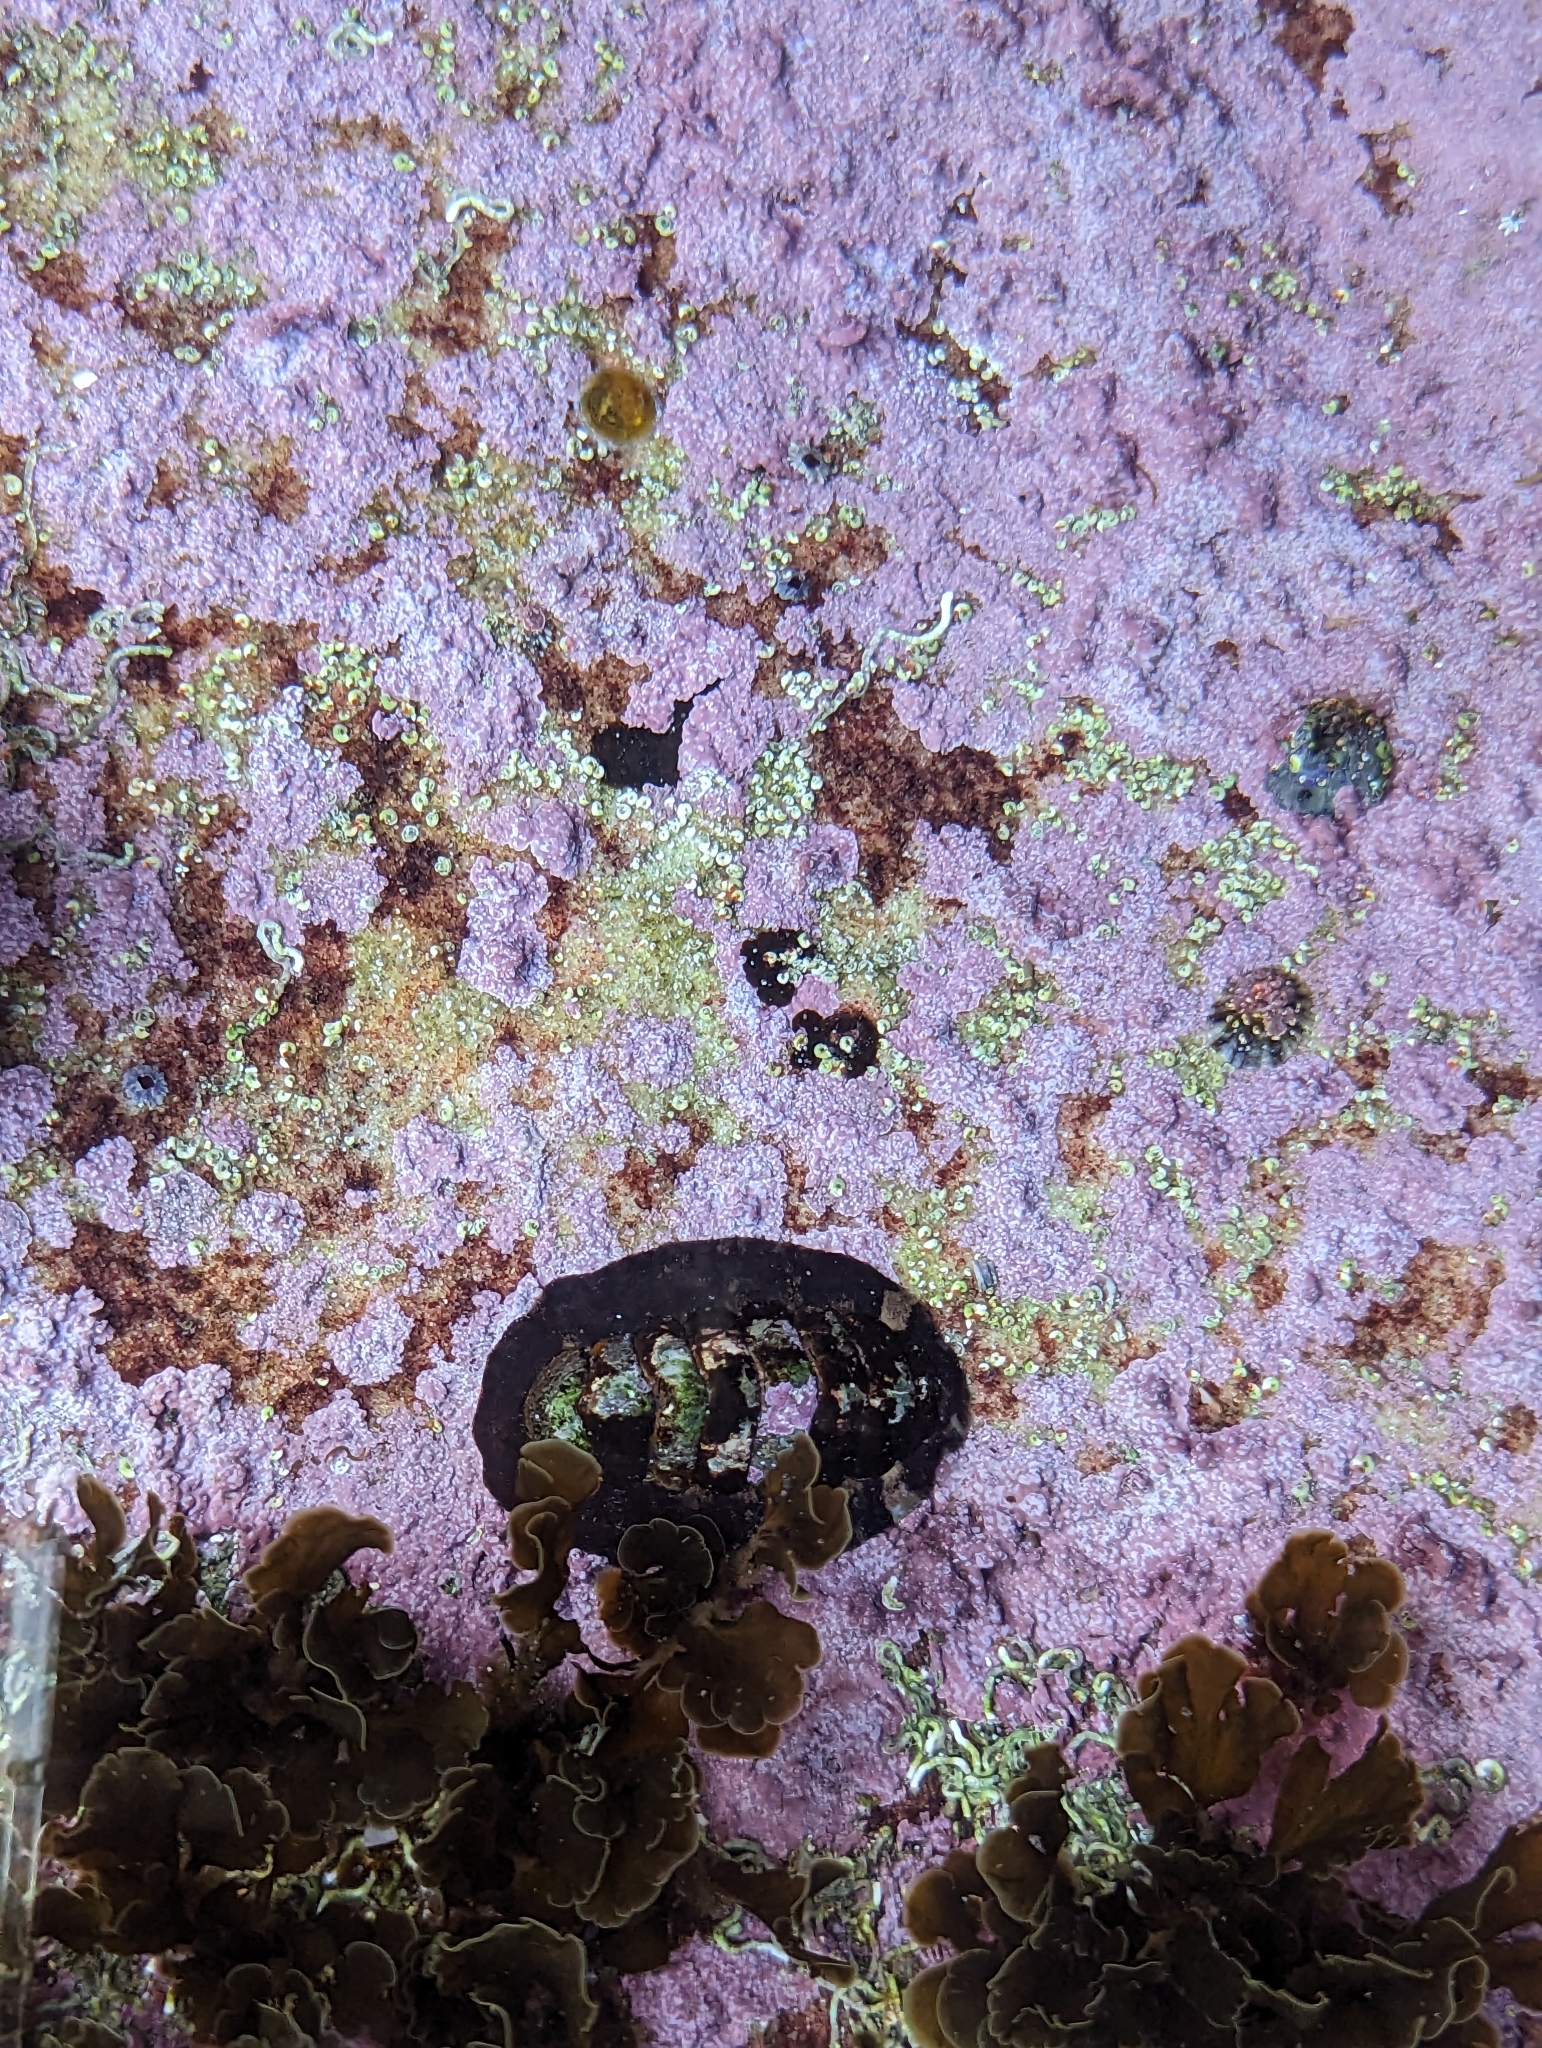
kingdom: Animalia
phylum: Mollusca
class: Polyplacophora
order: Chitonida
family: Chitonidae
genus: Onithochiton
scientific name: Onithochiton quercinus
